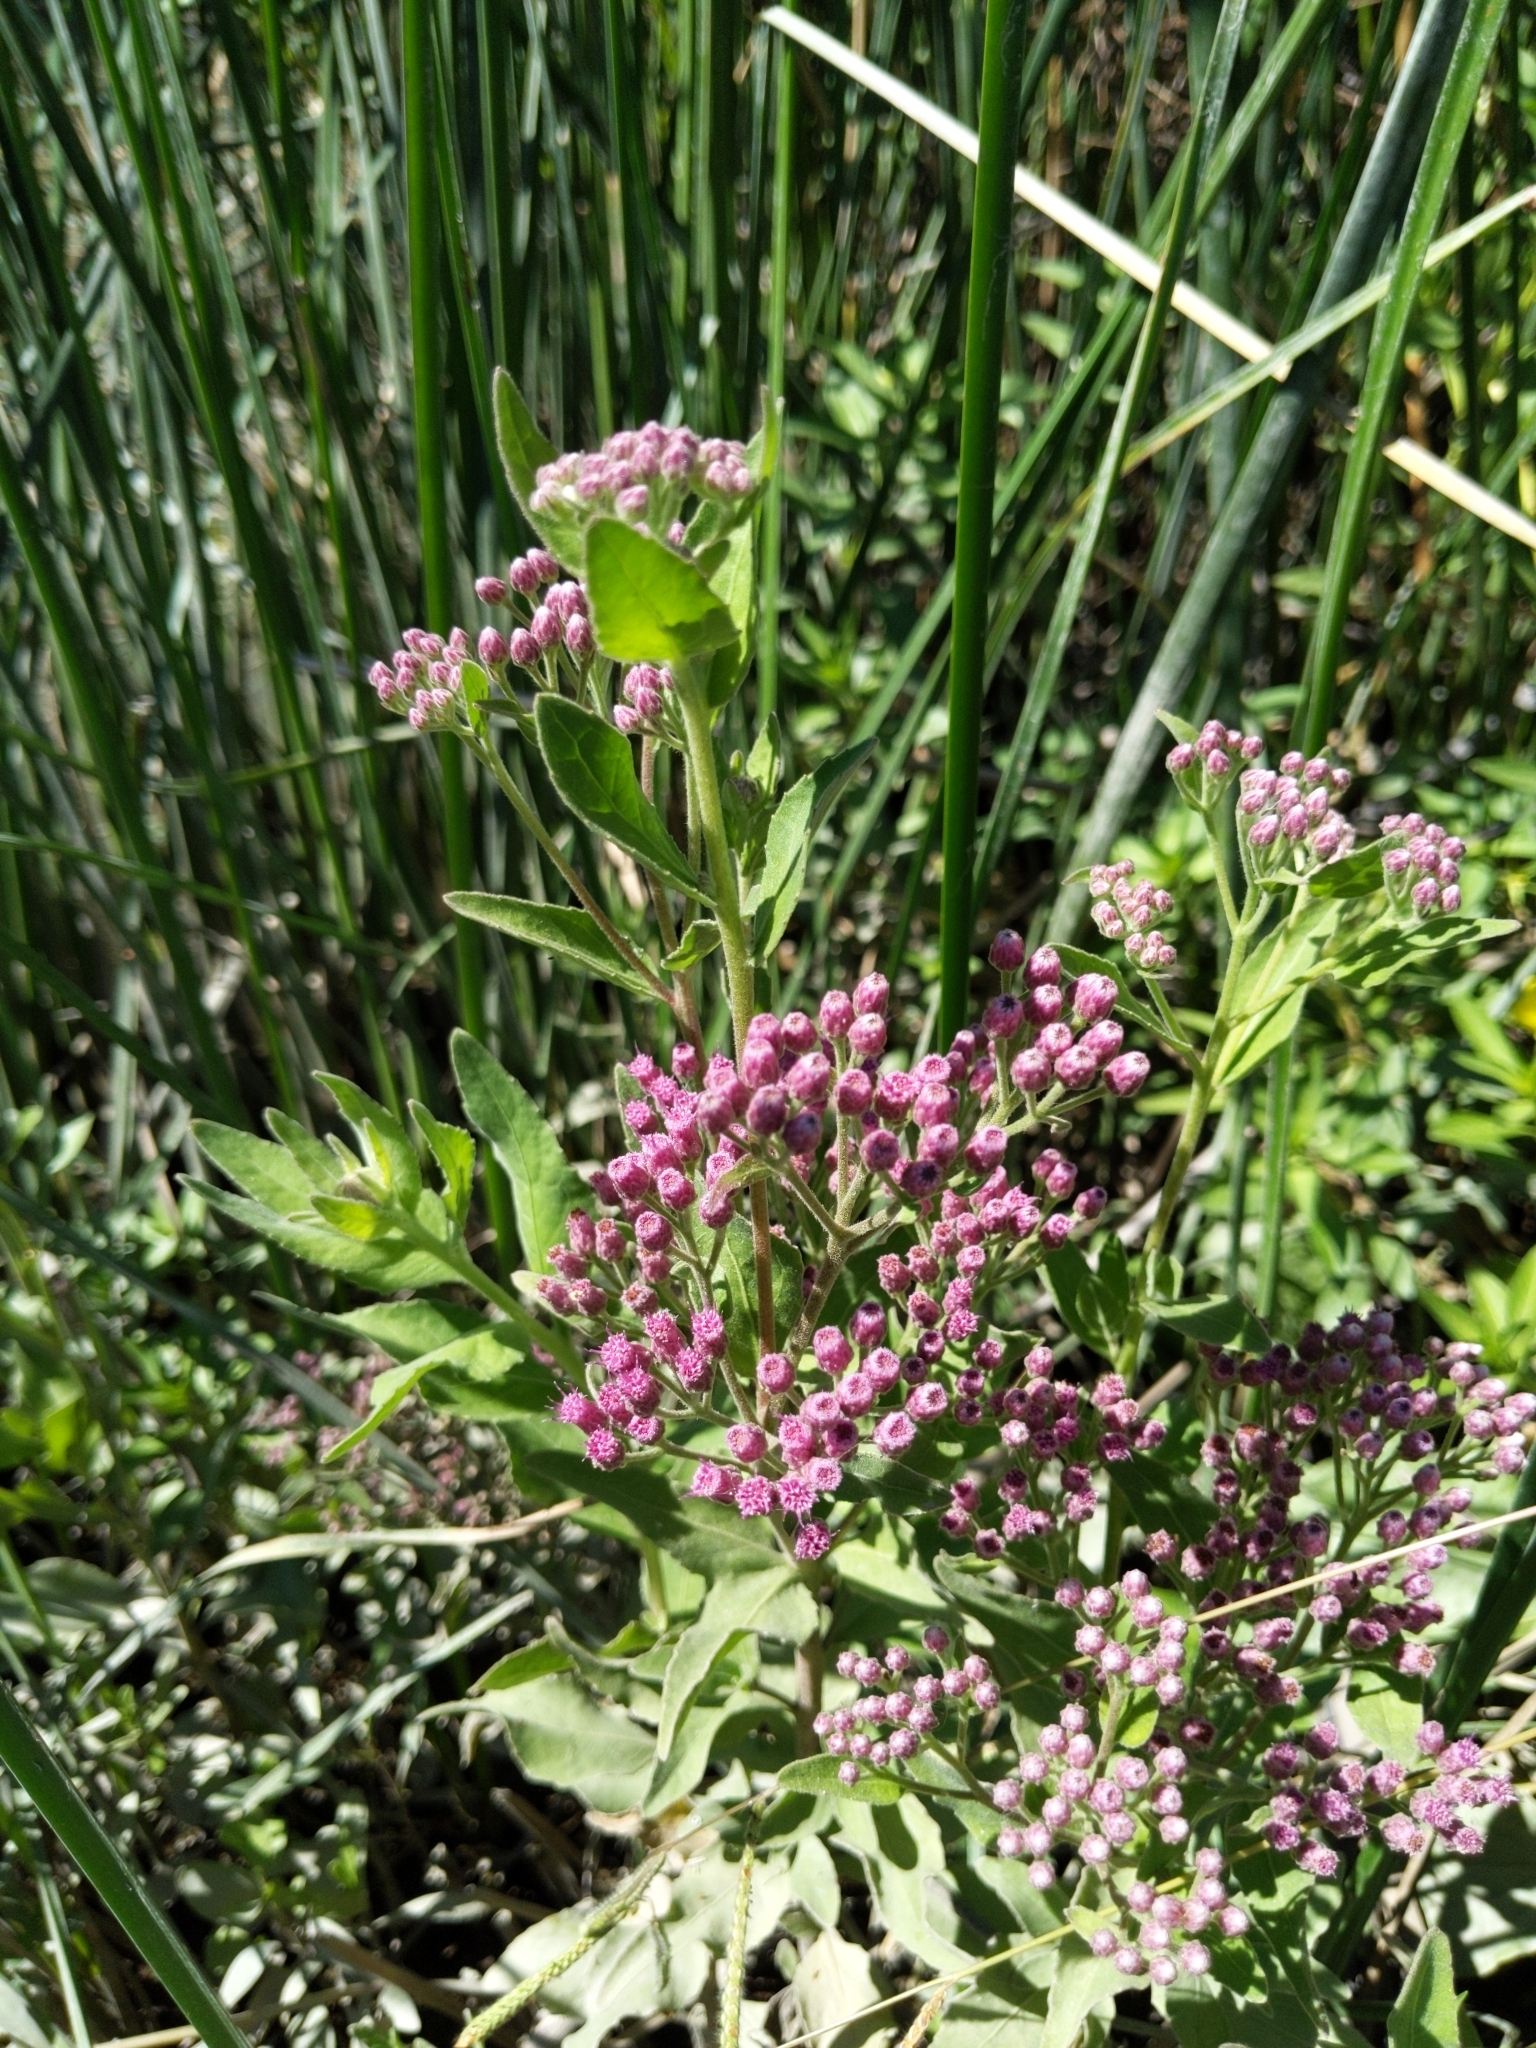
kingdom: Plantae
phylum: Tracheophyta
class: Magnoliopsida
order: Asterales
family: Asteraceae
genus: Pluchea
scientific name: Pluchea odorata
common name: Saltmarsh fleabane
